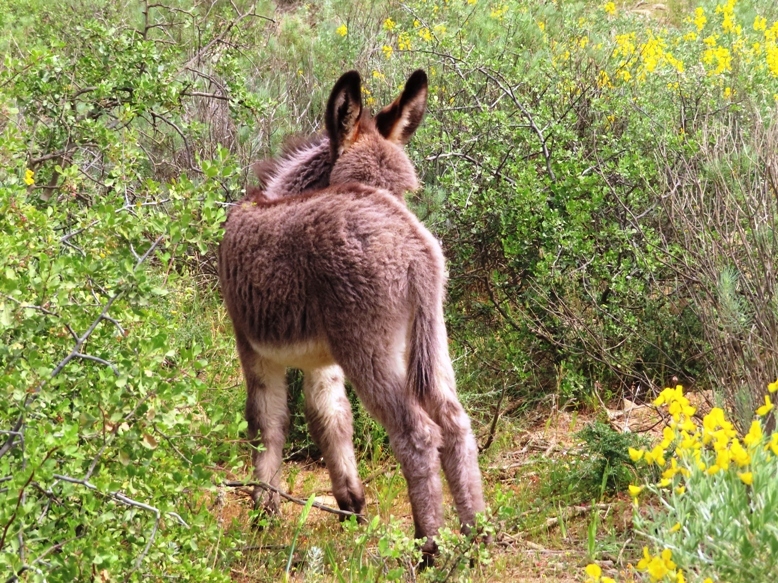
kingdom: Animalia
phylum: Chordata
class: Mammalia
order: Perissodactyla
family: Equidae
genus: Equus
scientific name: Equus asinus
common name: Ass
